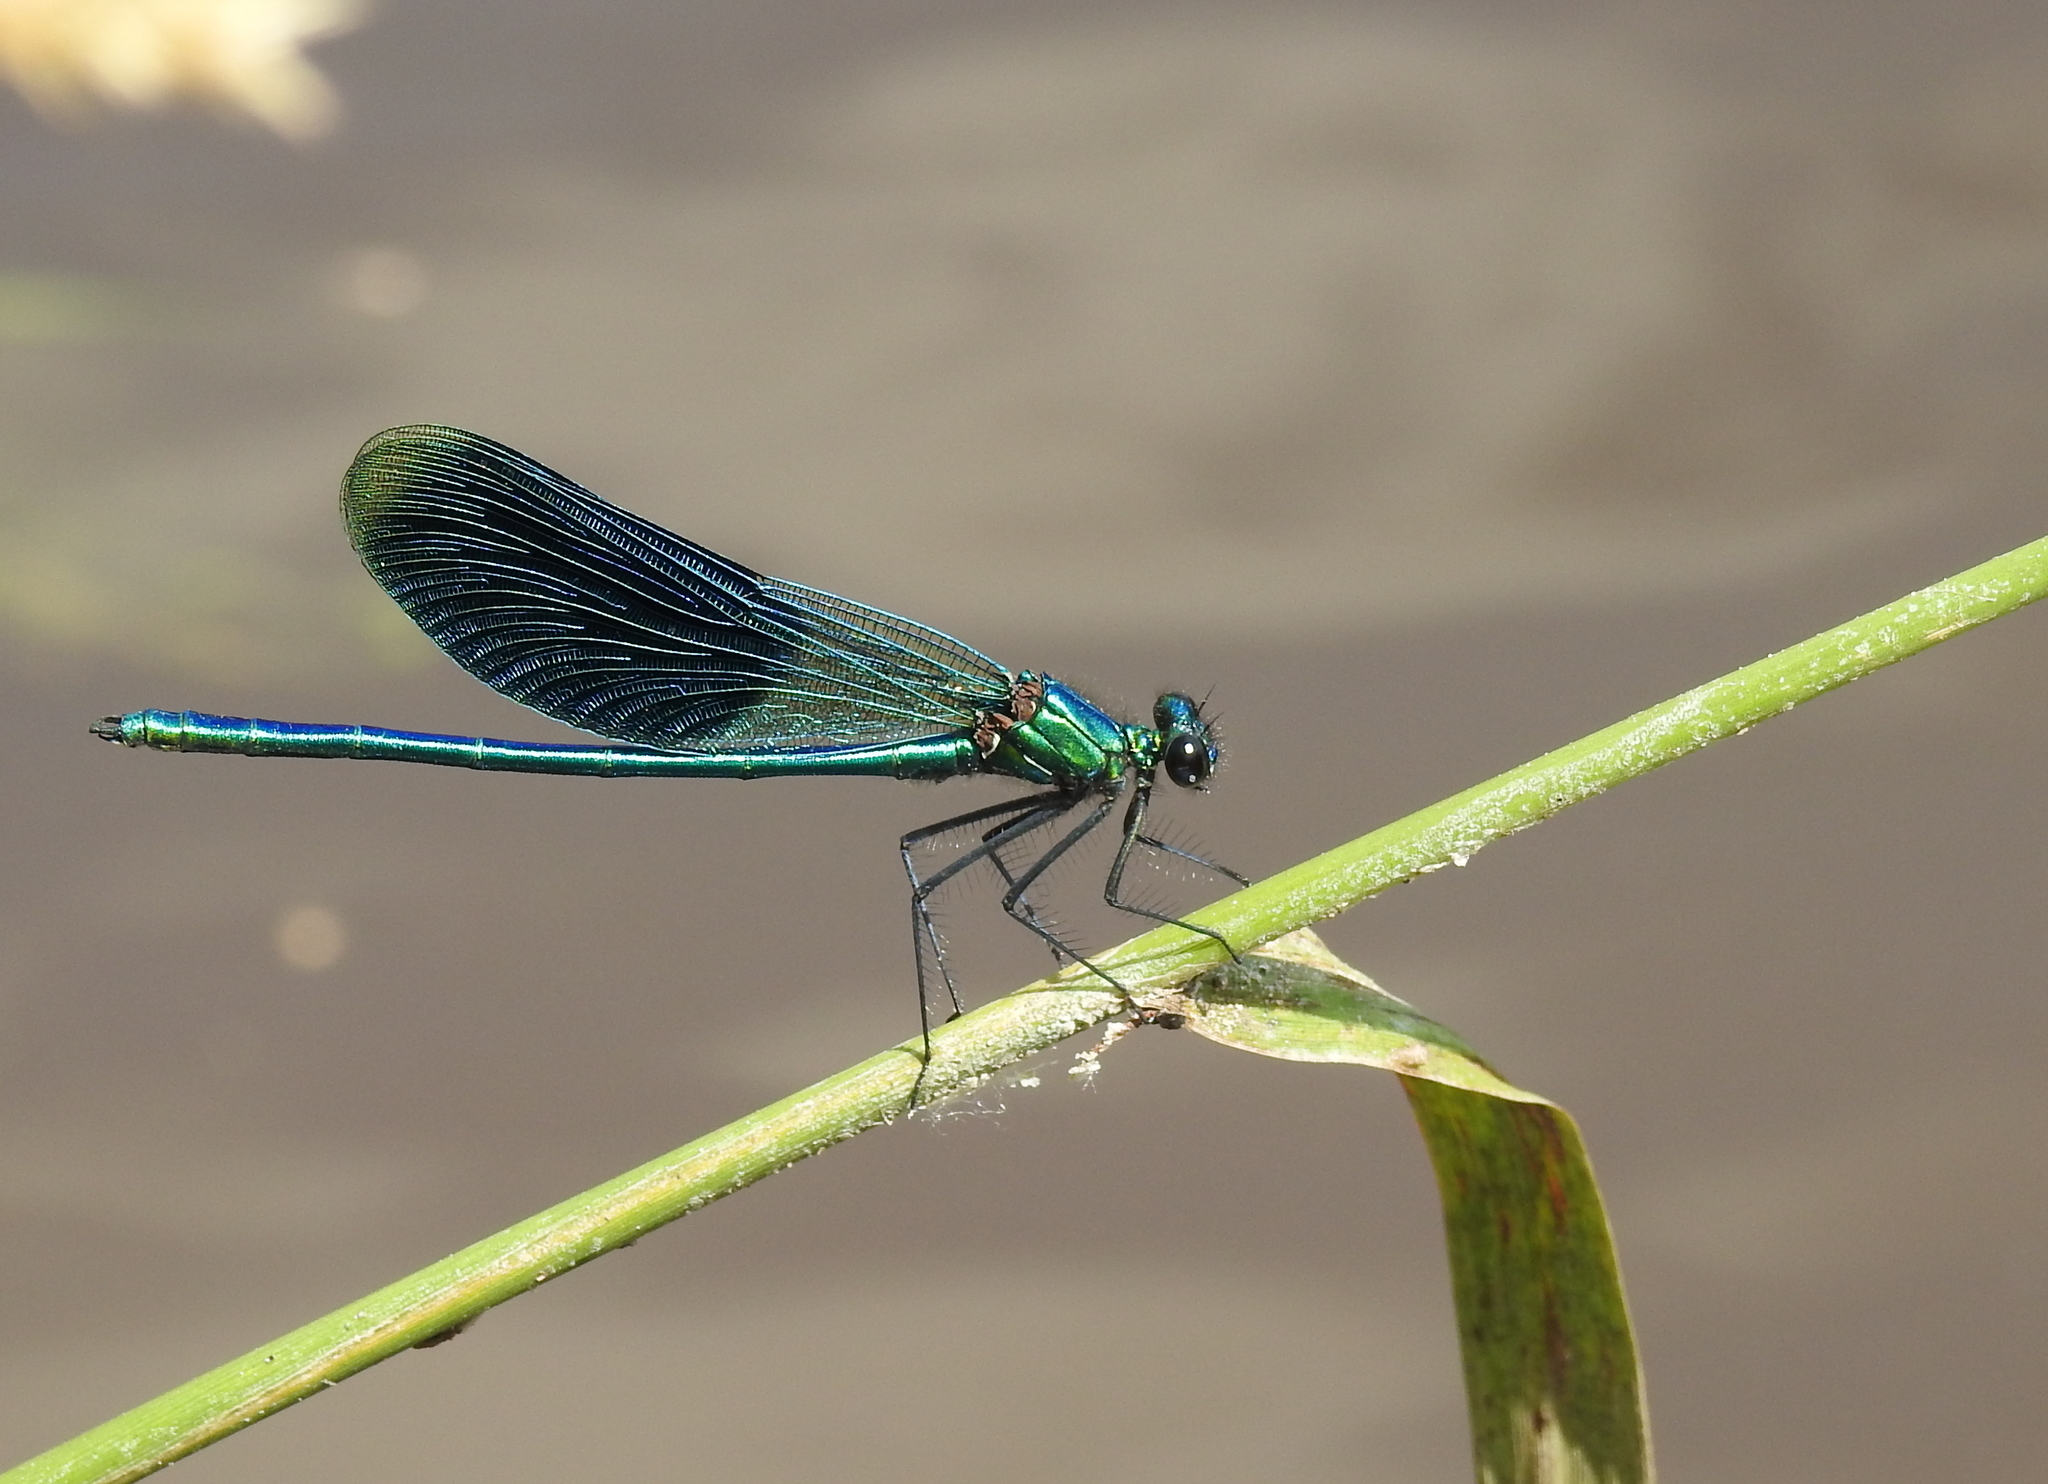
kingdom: Animalia
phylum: Arthropoda
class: Insecta
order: Odonata
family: Calopterygidae
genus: Calopteryx
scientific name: Calopteryx splendens
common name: Banded demoiselle
